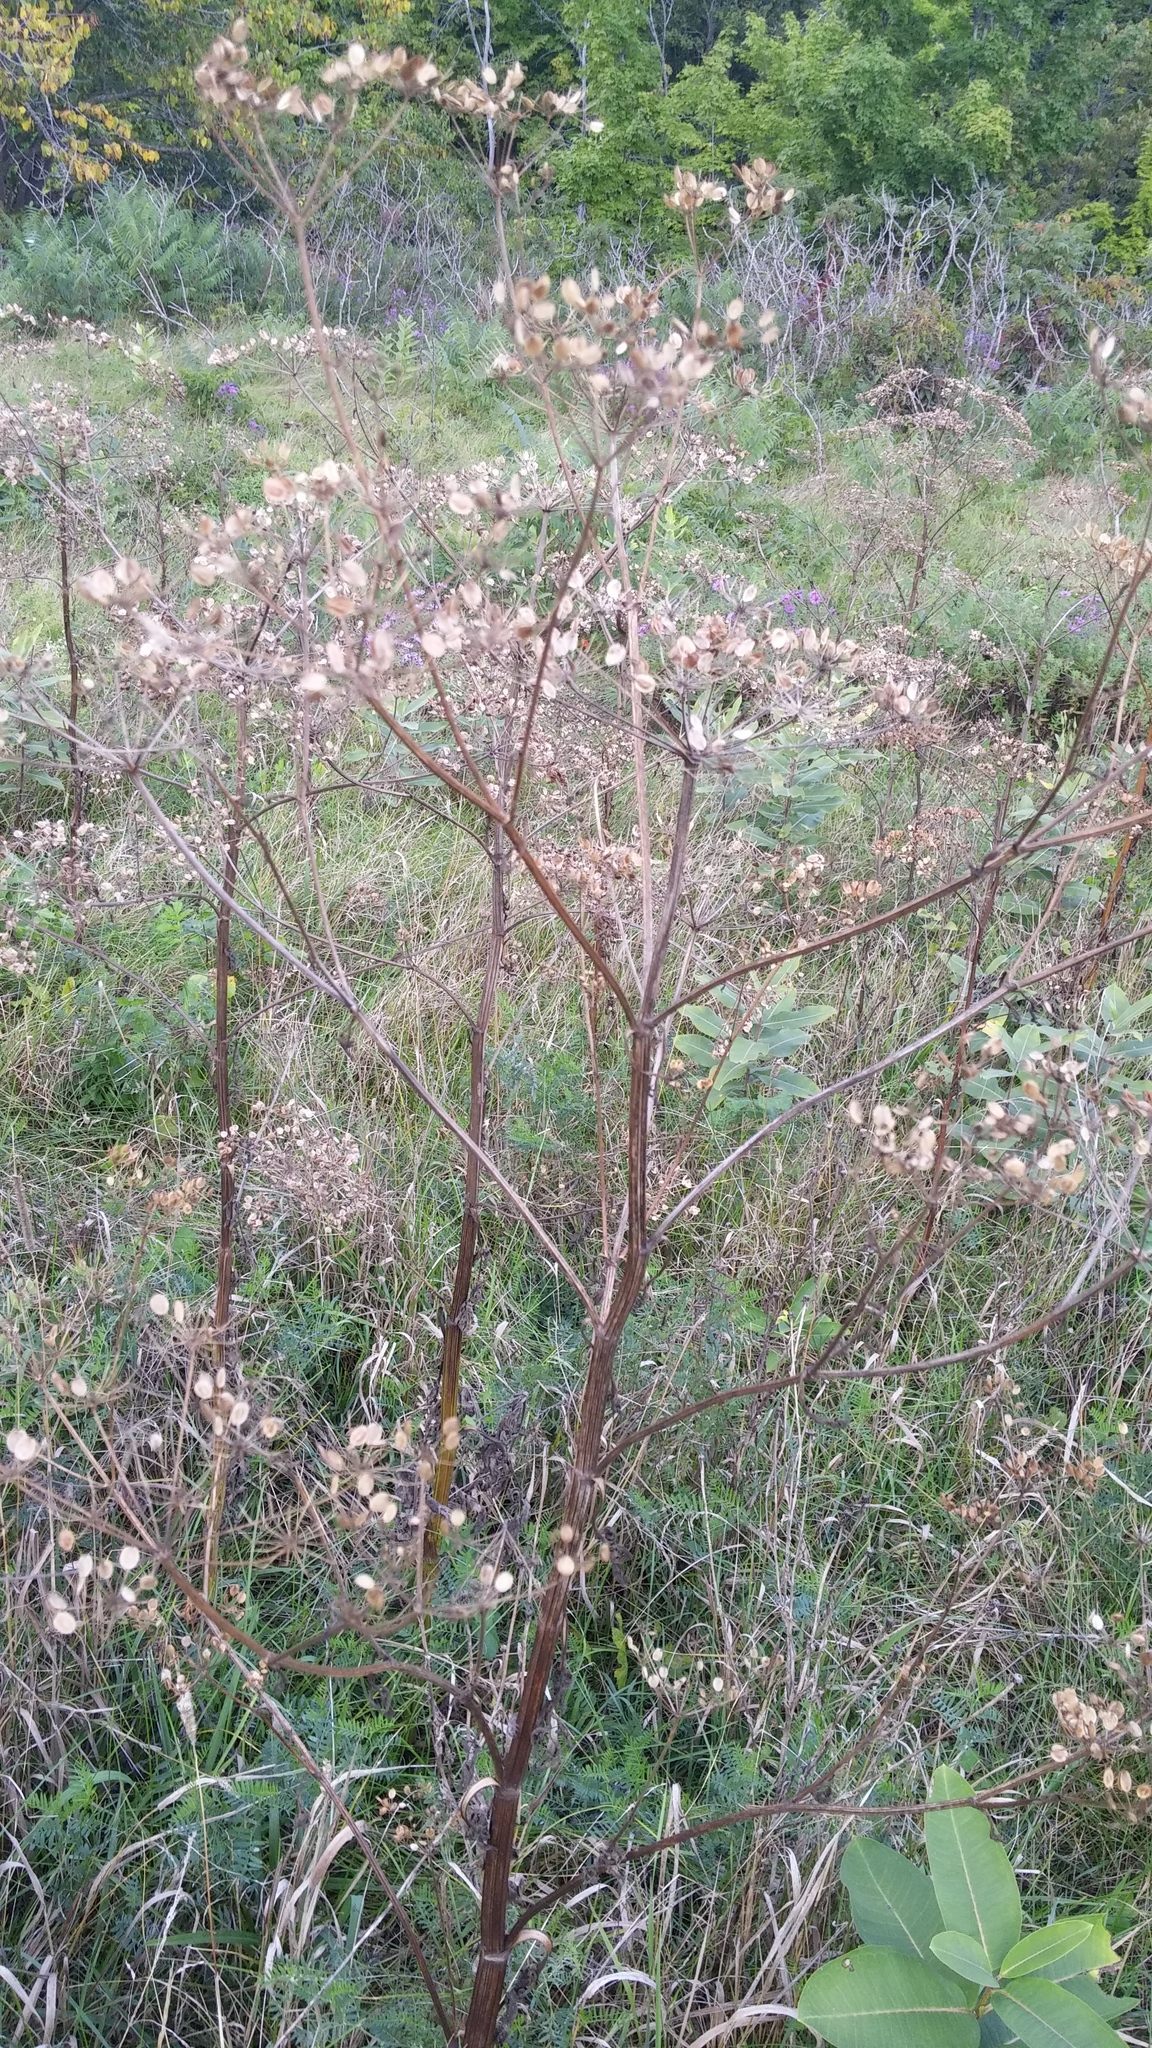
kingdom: Plantae
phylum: Tracheophyta
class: Magnoliopsida
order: Apiales
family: Apiaceae
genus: Pastinaca
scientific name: Pastinaca sativa
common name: Wild parsnip
